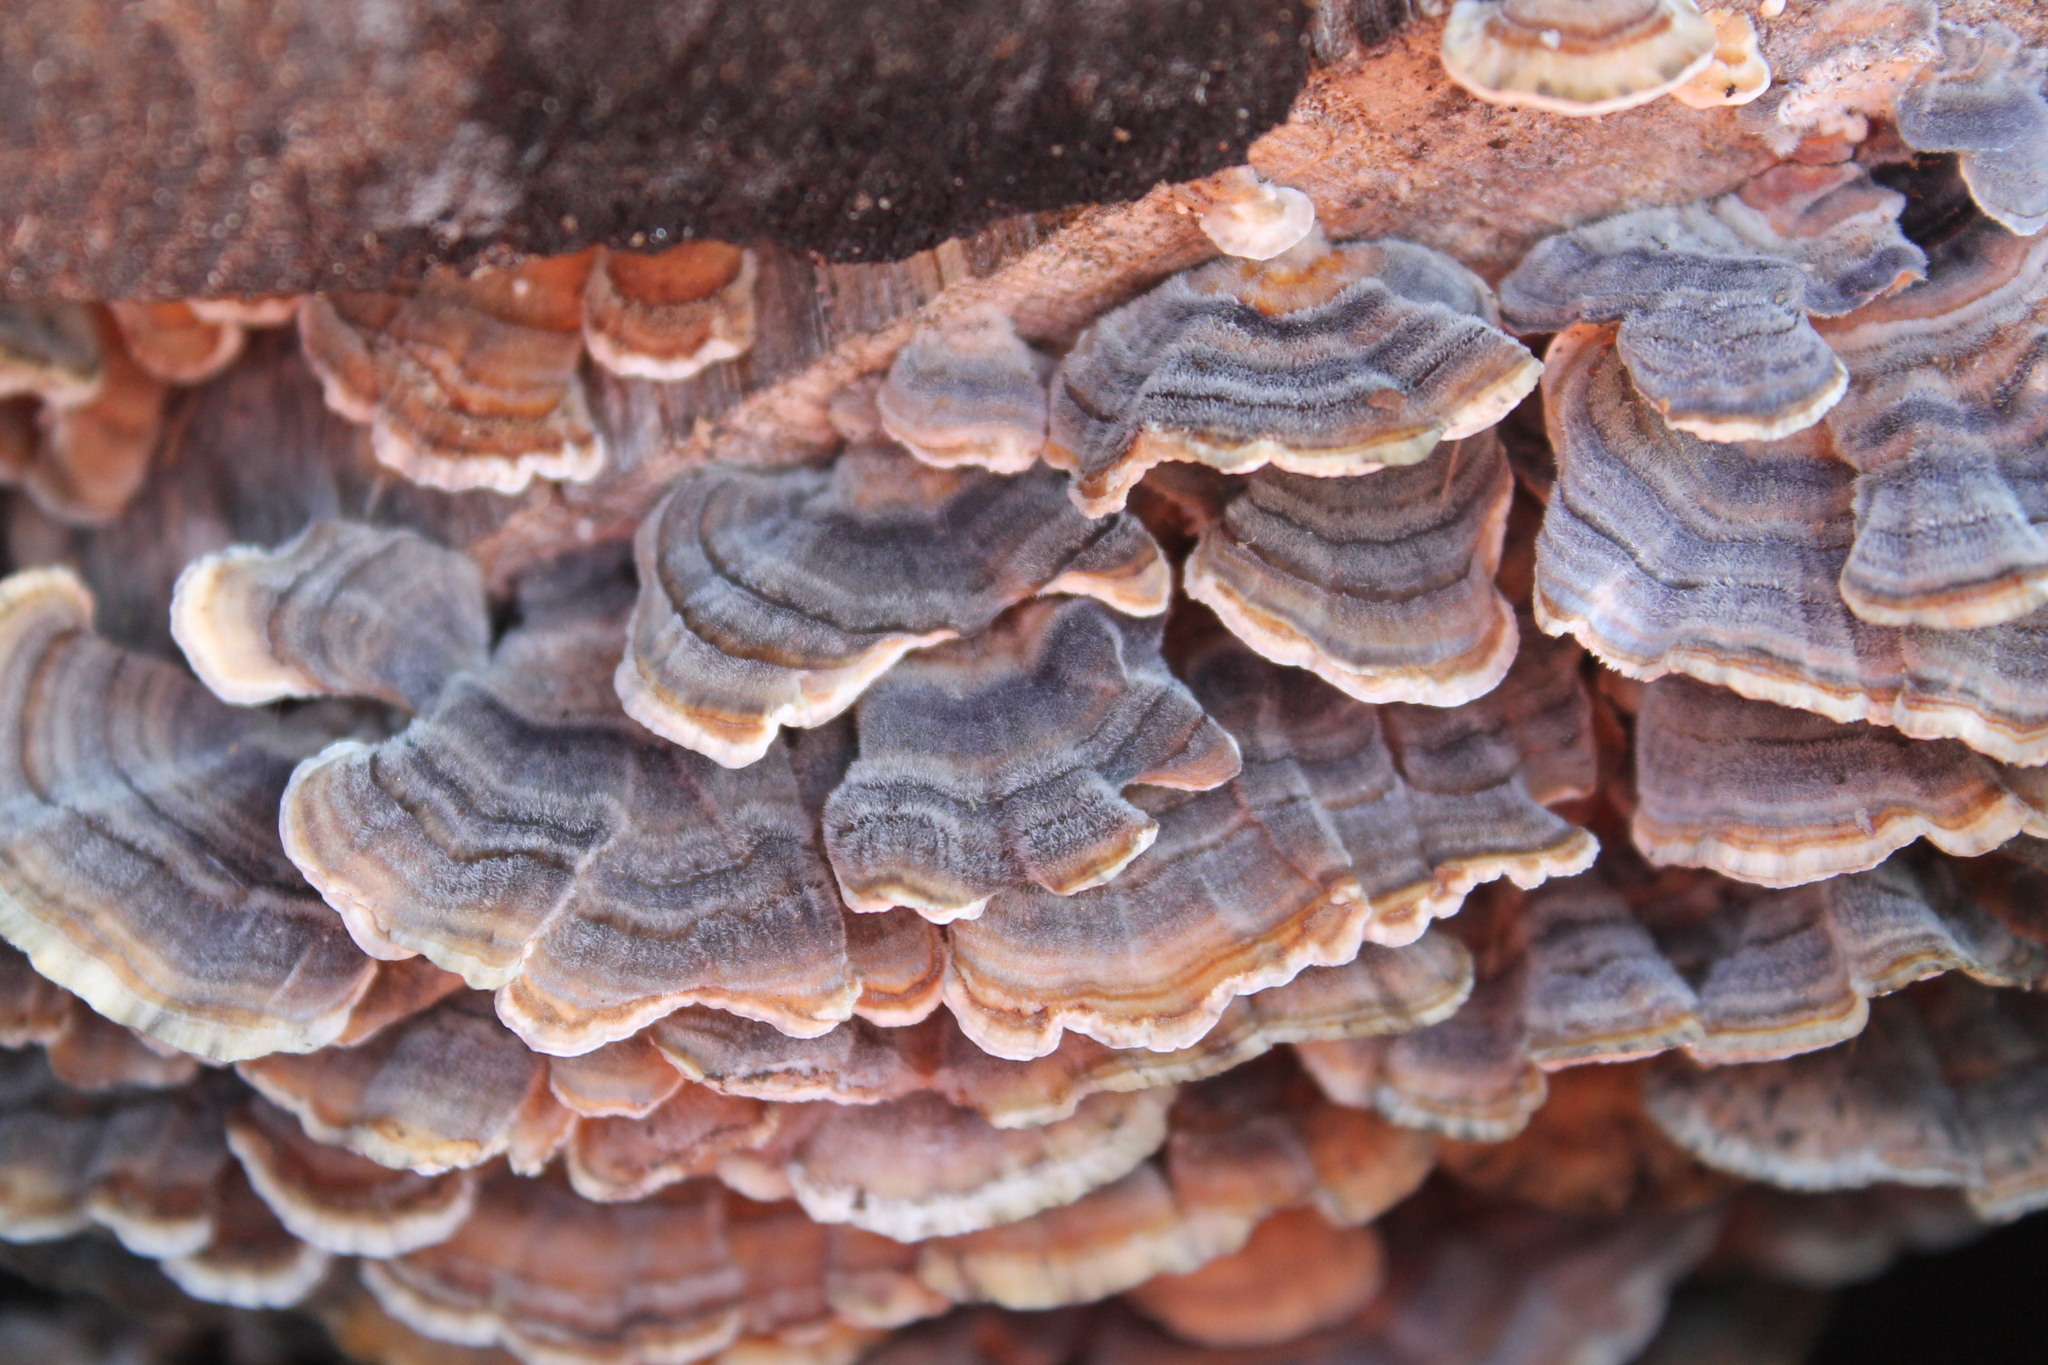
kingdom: Fungi
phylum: Basidiomycota
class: Agaricomycetes
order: Polyporales
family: Polyporaceae
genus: Trametes
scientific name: Trametes versicolor
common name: Turkeytail
